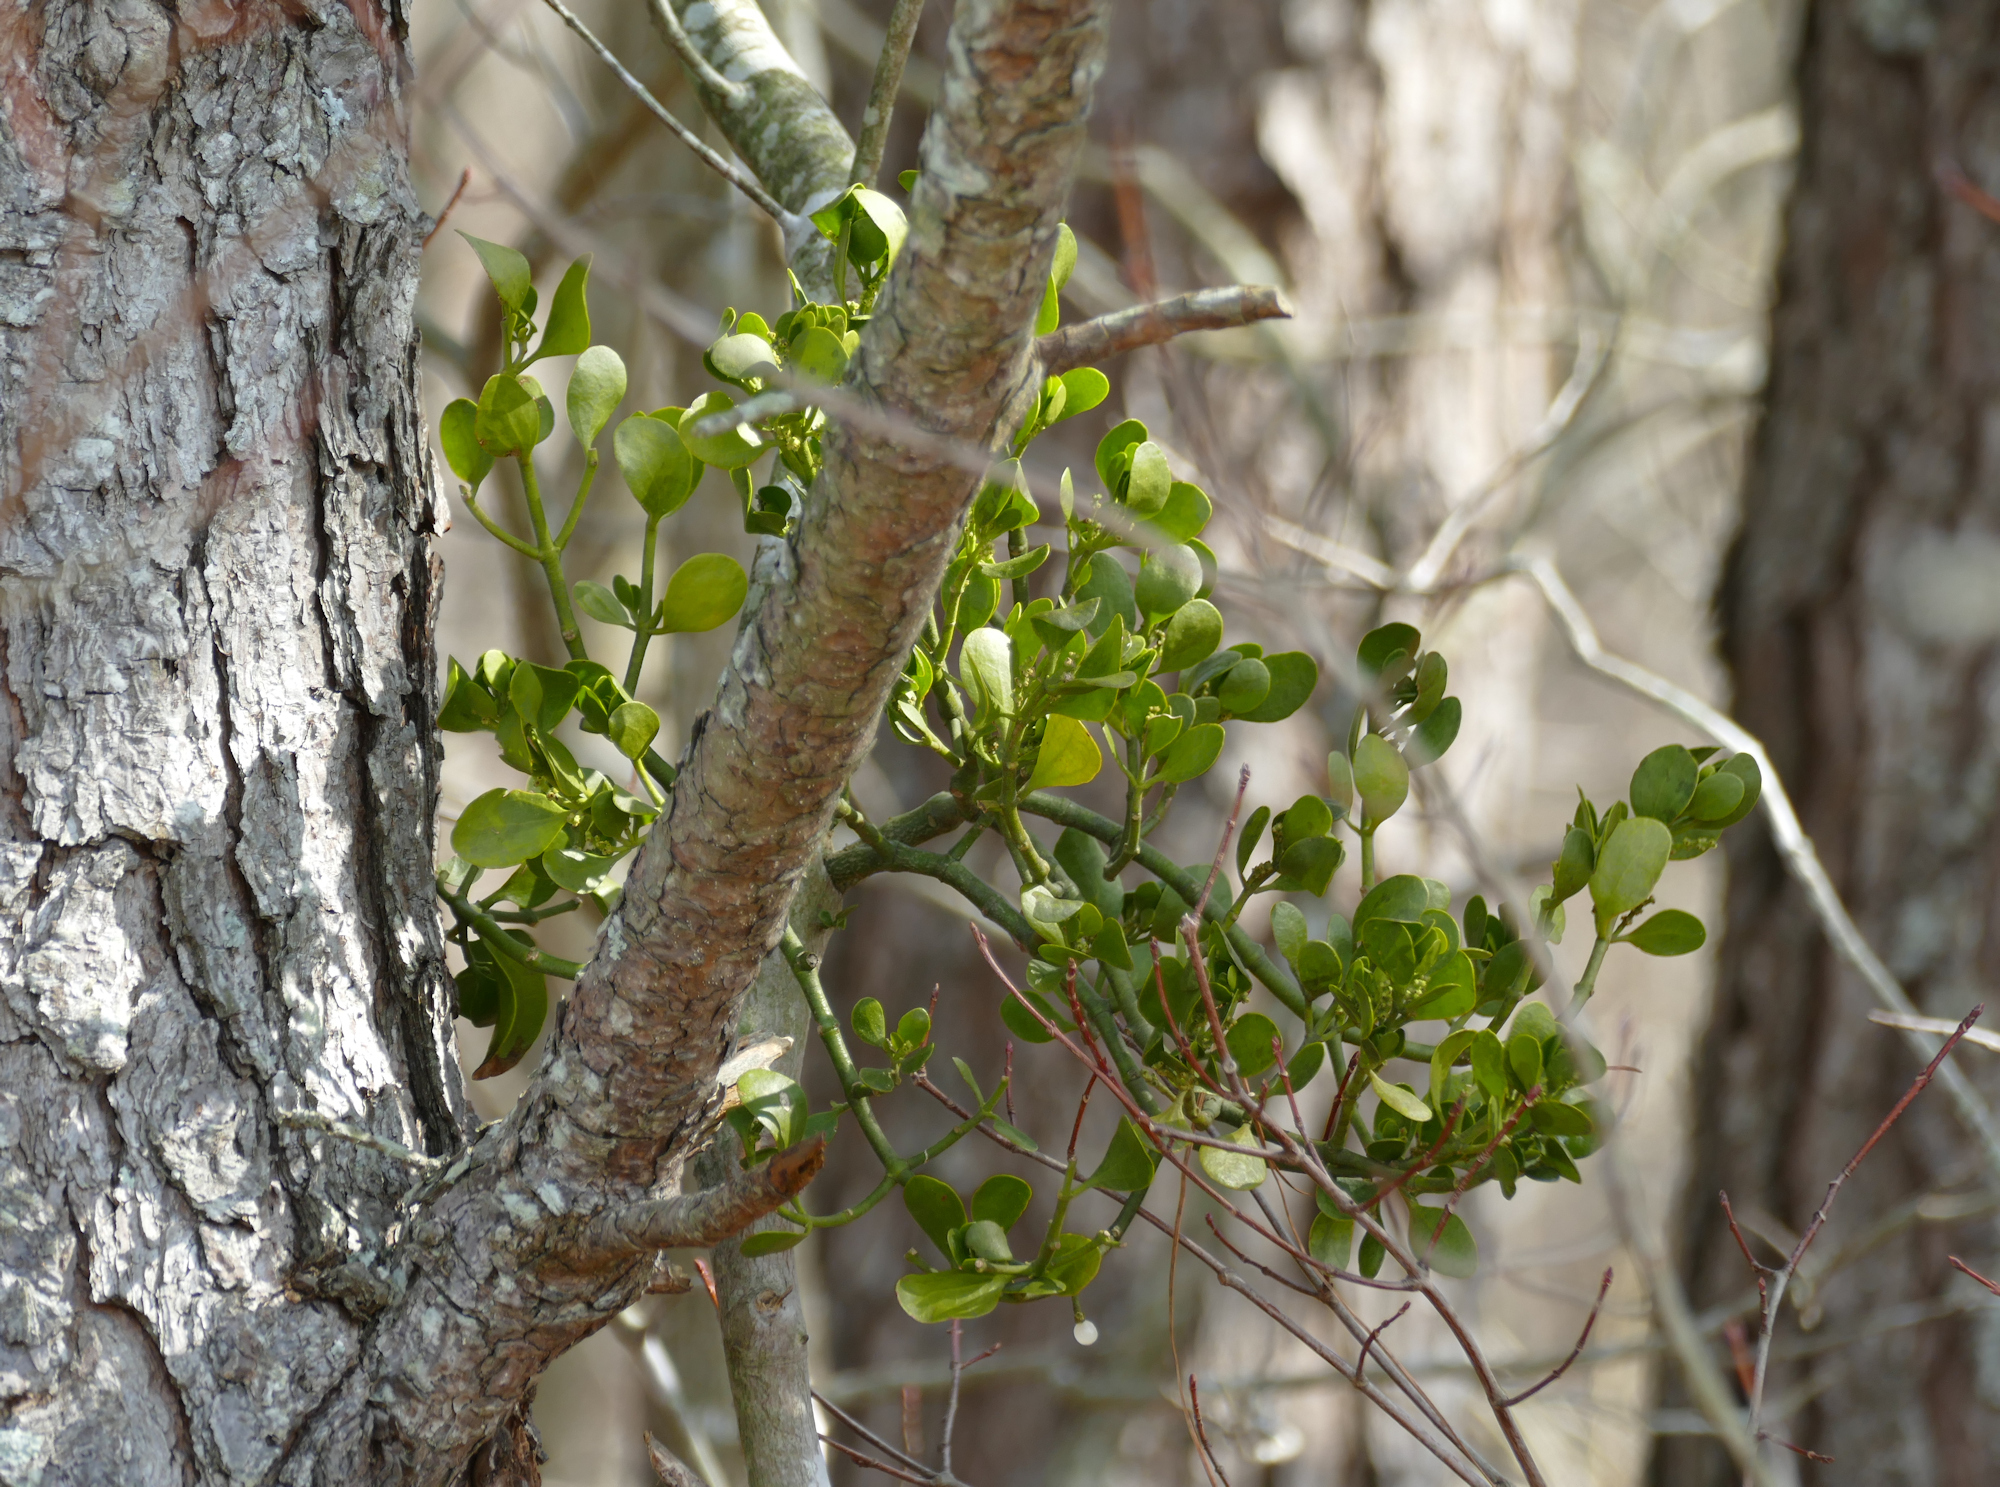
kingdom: Plantae
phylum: Tracheophyta
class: Magnoliopsida
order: Santalales
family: Viscaceae
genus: Phoradendron
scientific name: Phoradendron leucarpum
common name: Pacific mistletoe
